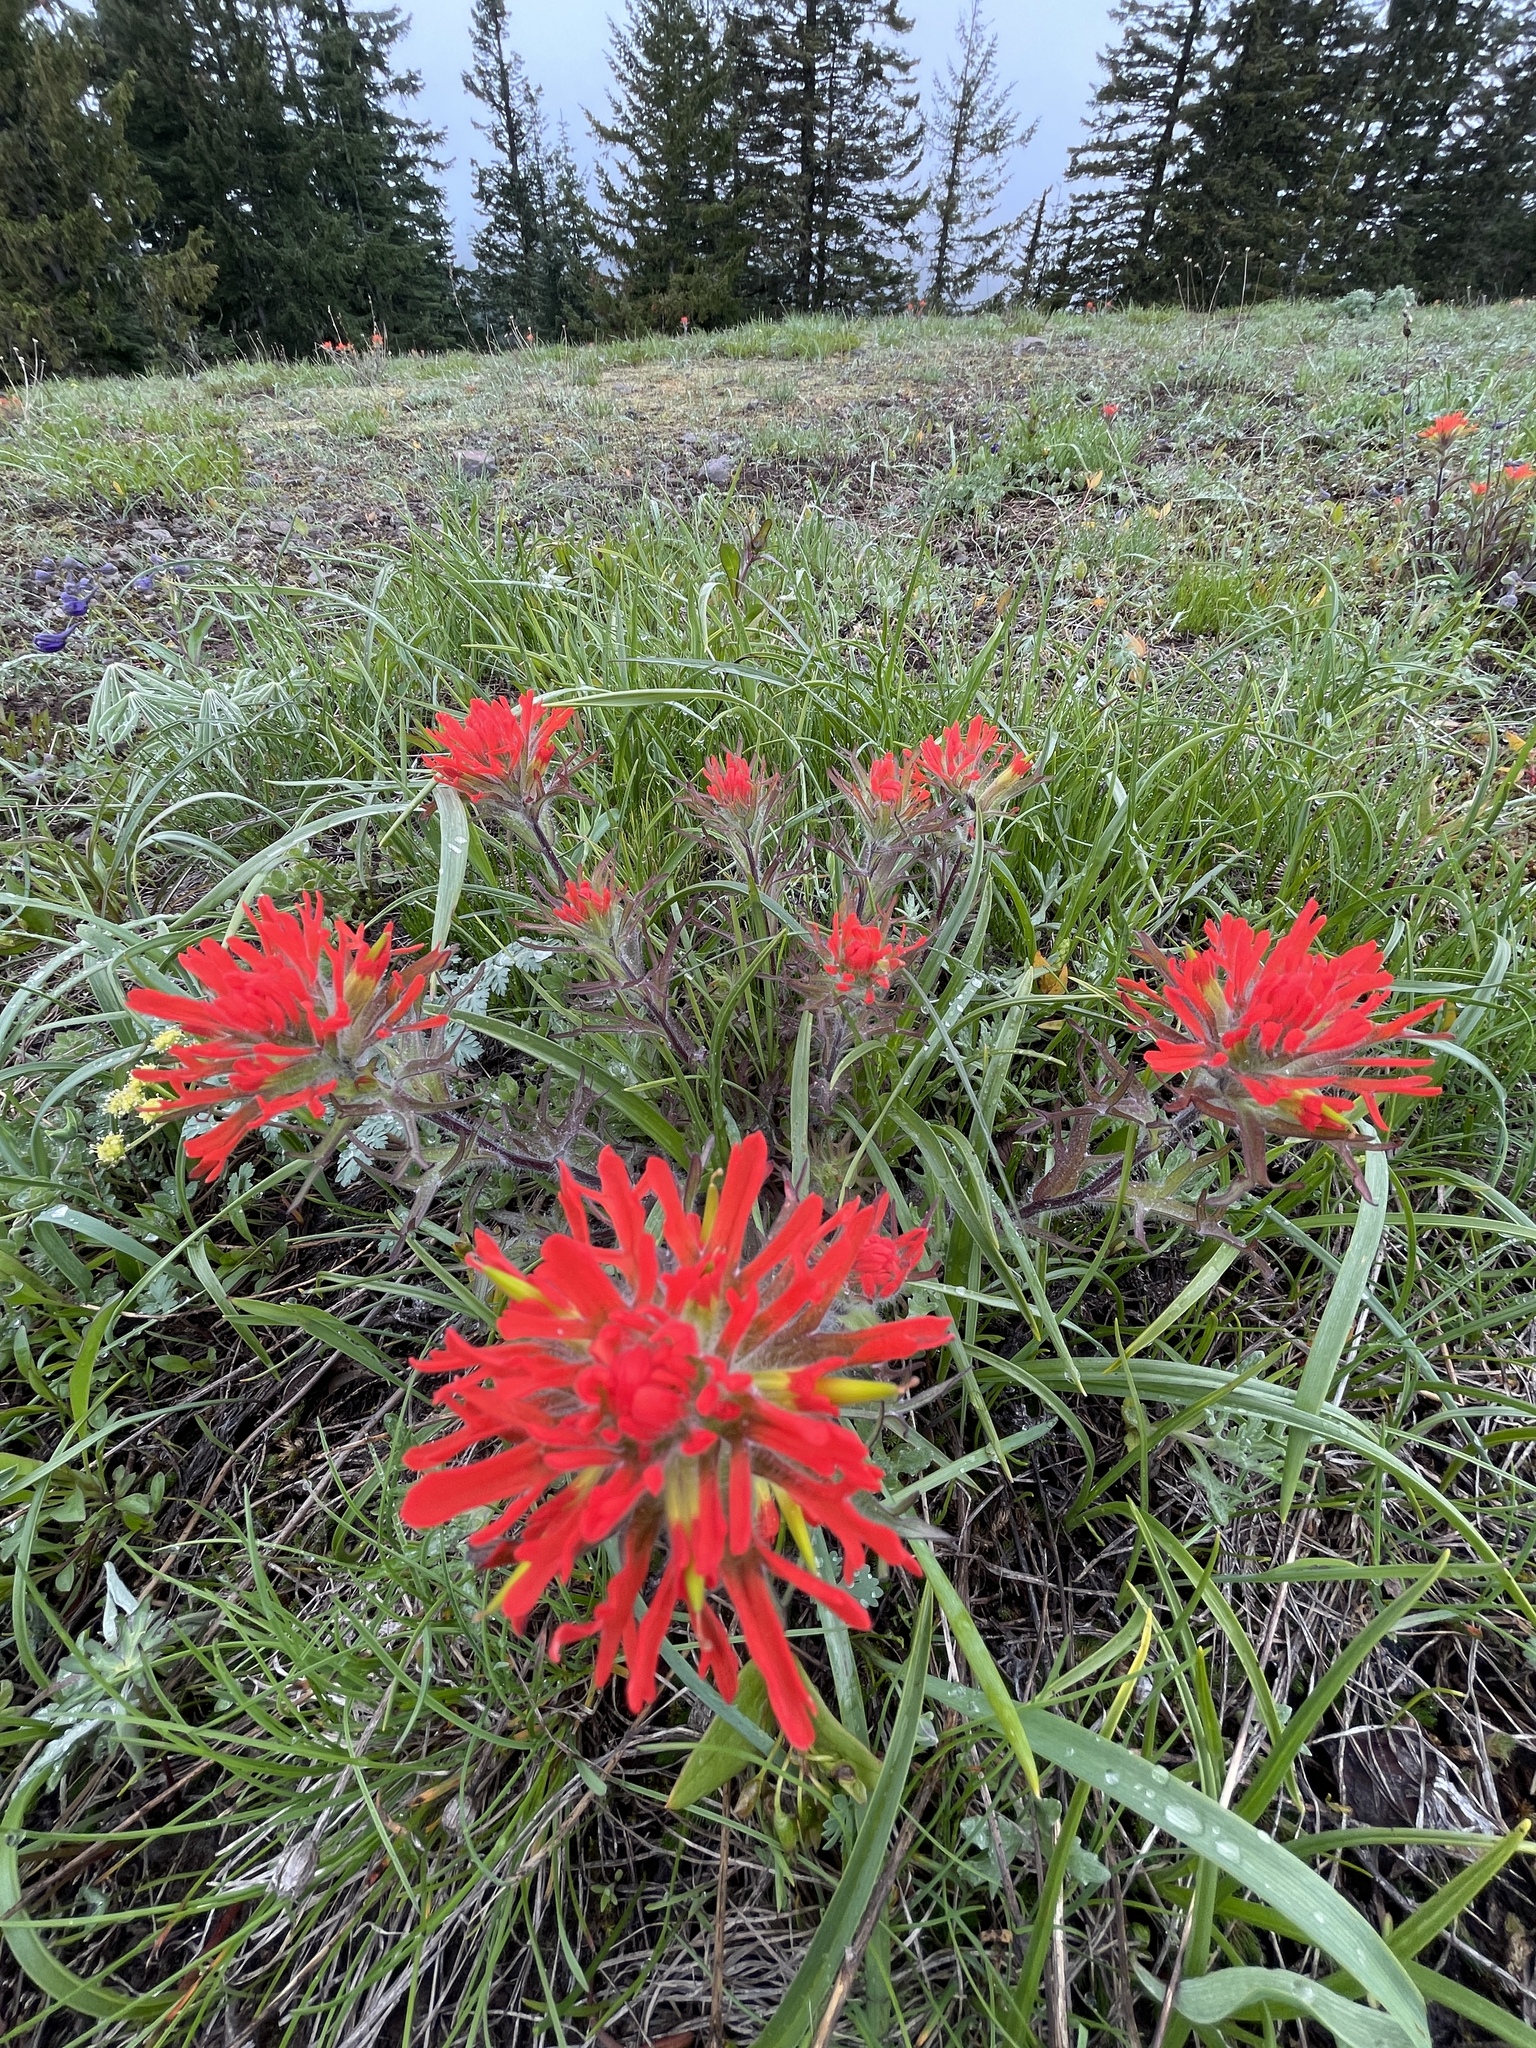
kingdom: Plantae
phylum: Tracheophyta
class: Magnoliopsida
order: Lamiales
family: Orobanchaceae
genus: Castilleja
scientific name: Castilleja hispida
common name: Bristly paintbrush
